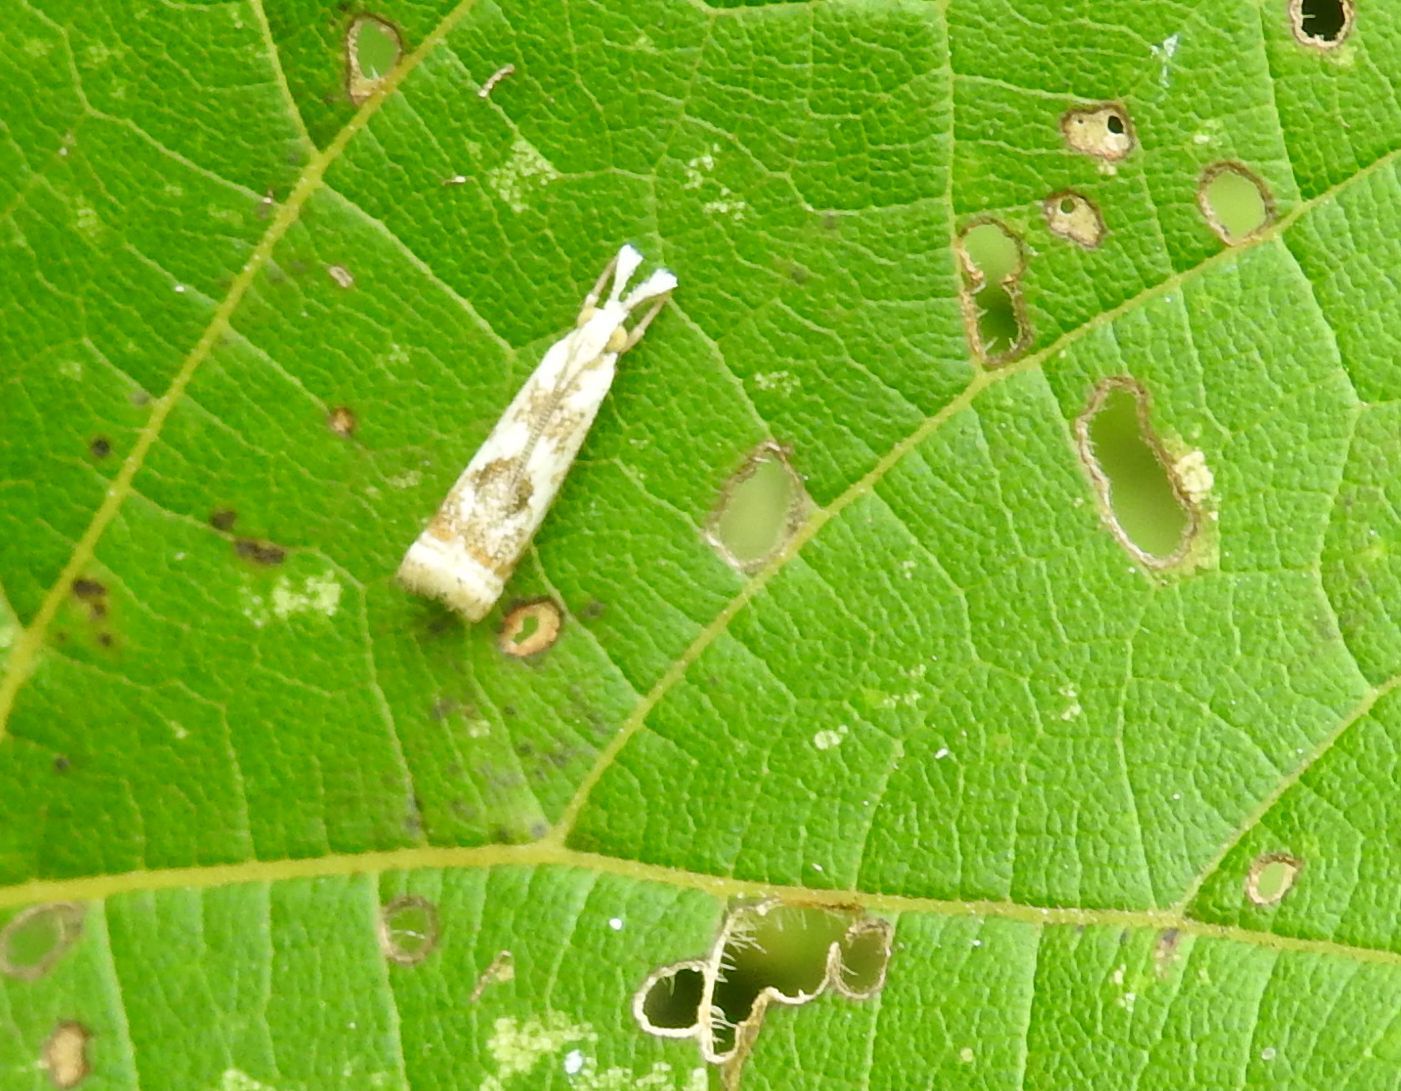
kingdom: Animalia
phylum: Arthropoda
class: Insecta
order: Lepidoptera
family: Crambidae
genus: Microcrambus
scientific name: Microcrambus elegans
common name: Elegant grass-veneer
